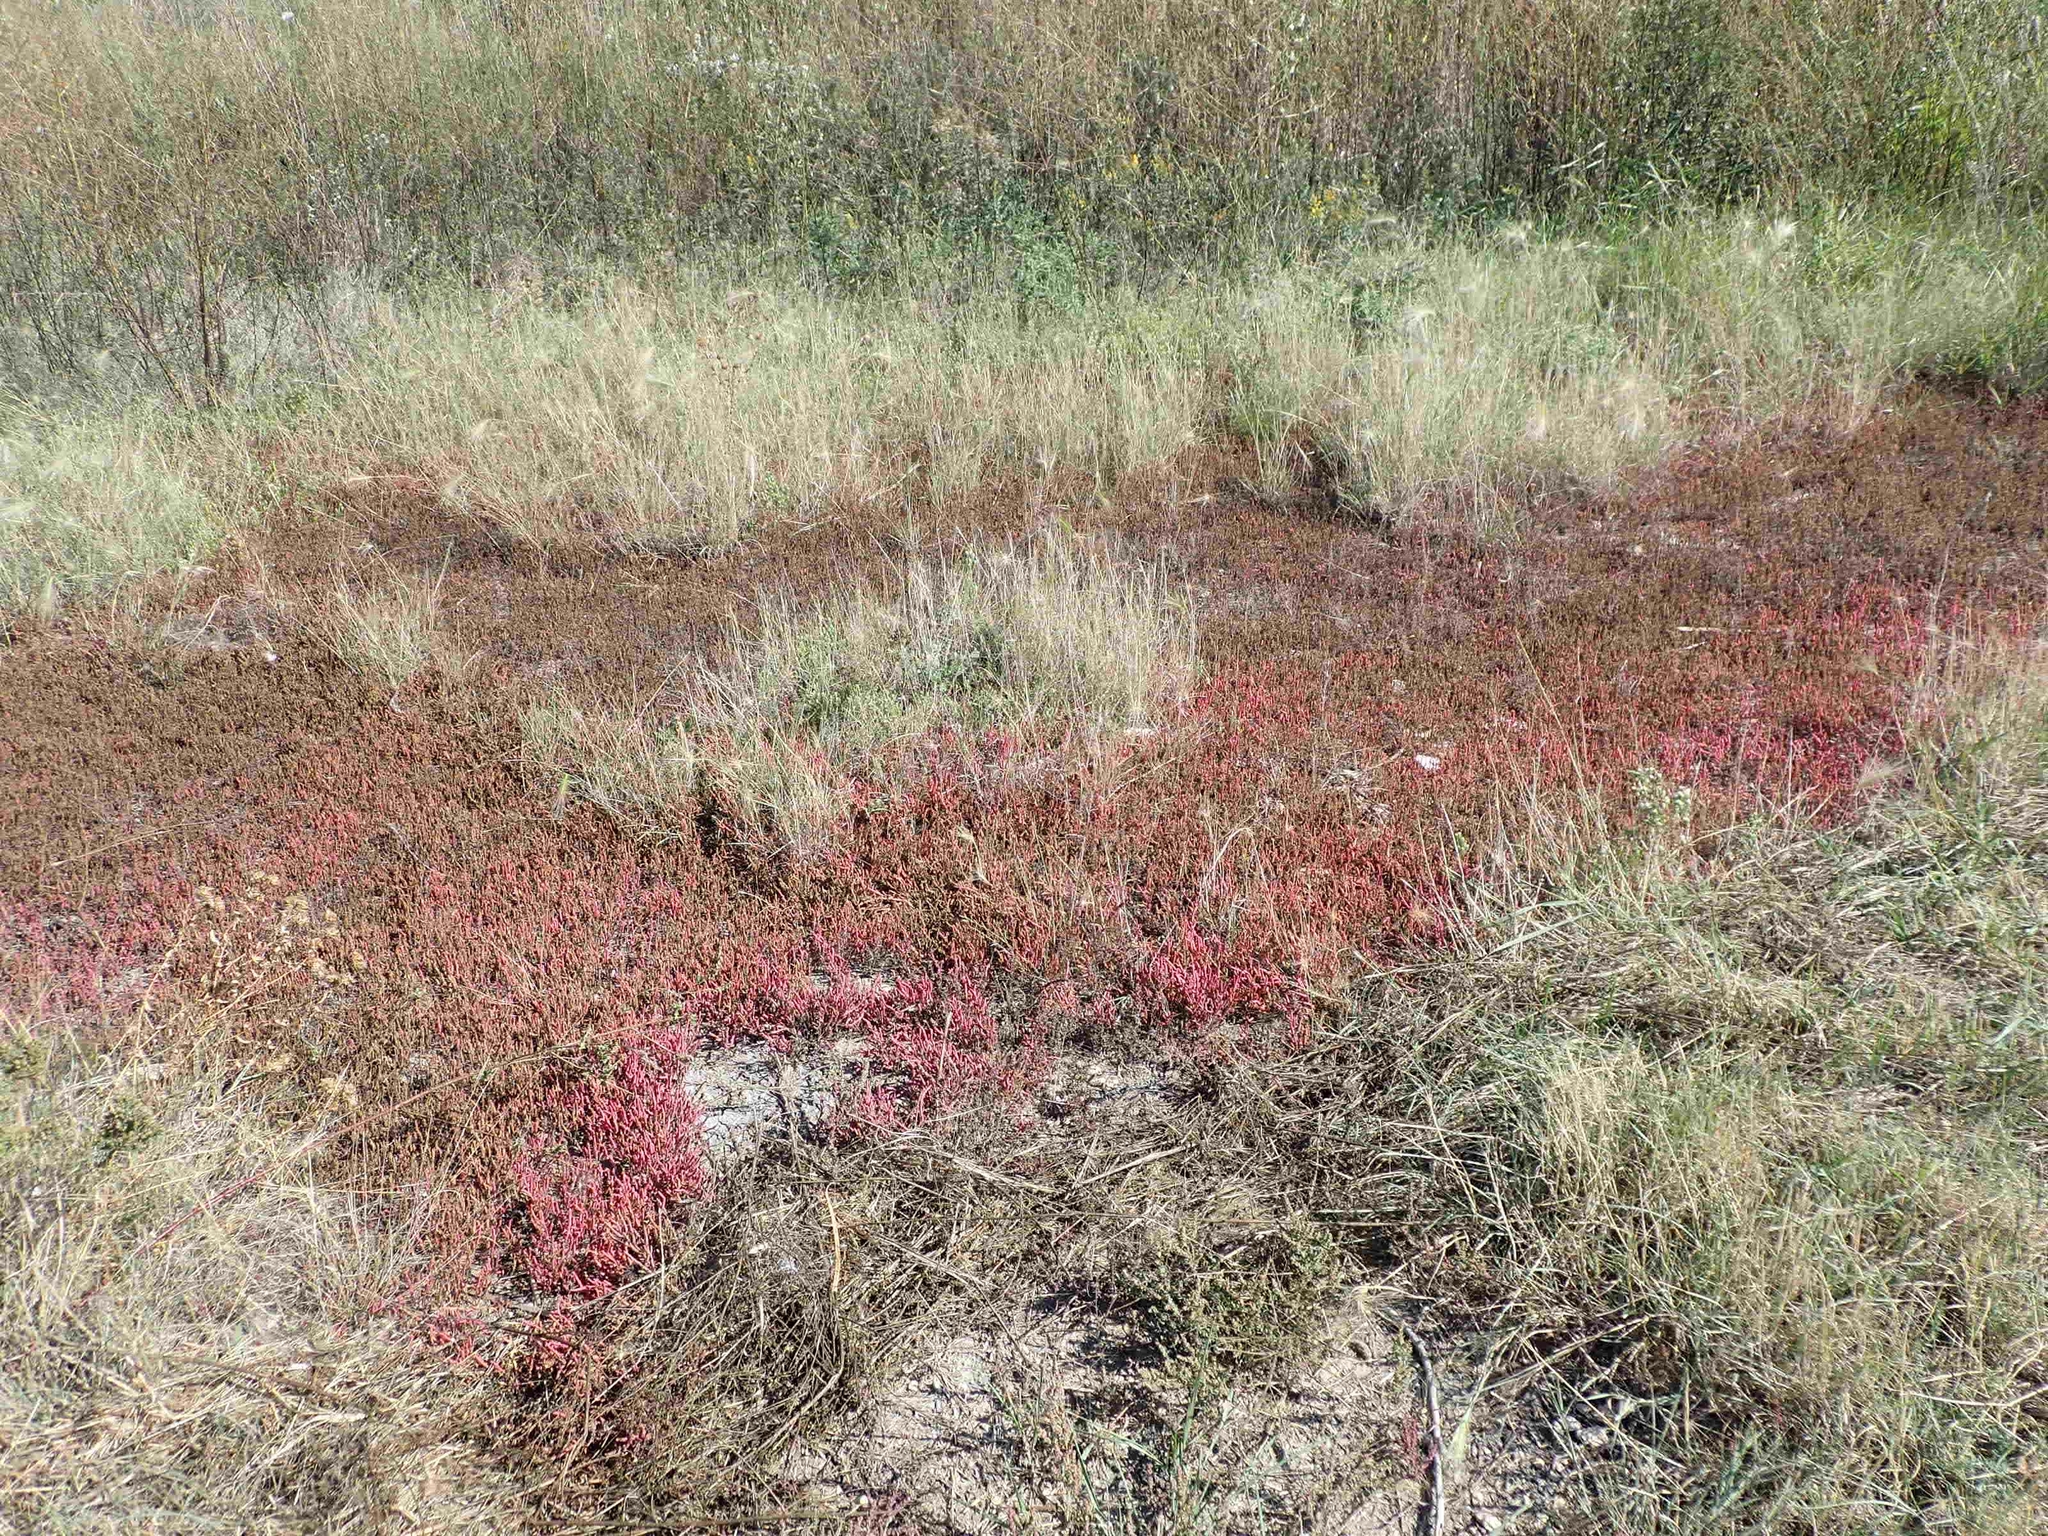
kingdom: Plantae
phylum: Tracheophyta
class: Magnoliopsida
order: Caryophyllales
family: Amaranthaceae
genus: Salicornia
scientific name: Salicornia rubra
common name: Red glasswort
